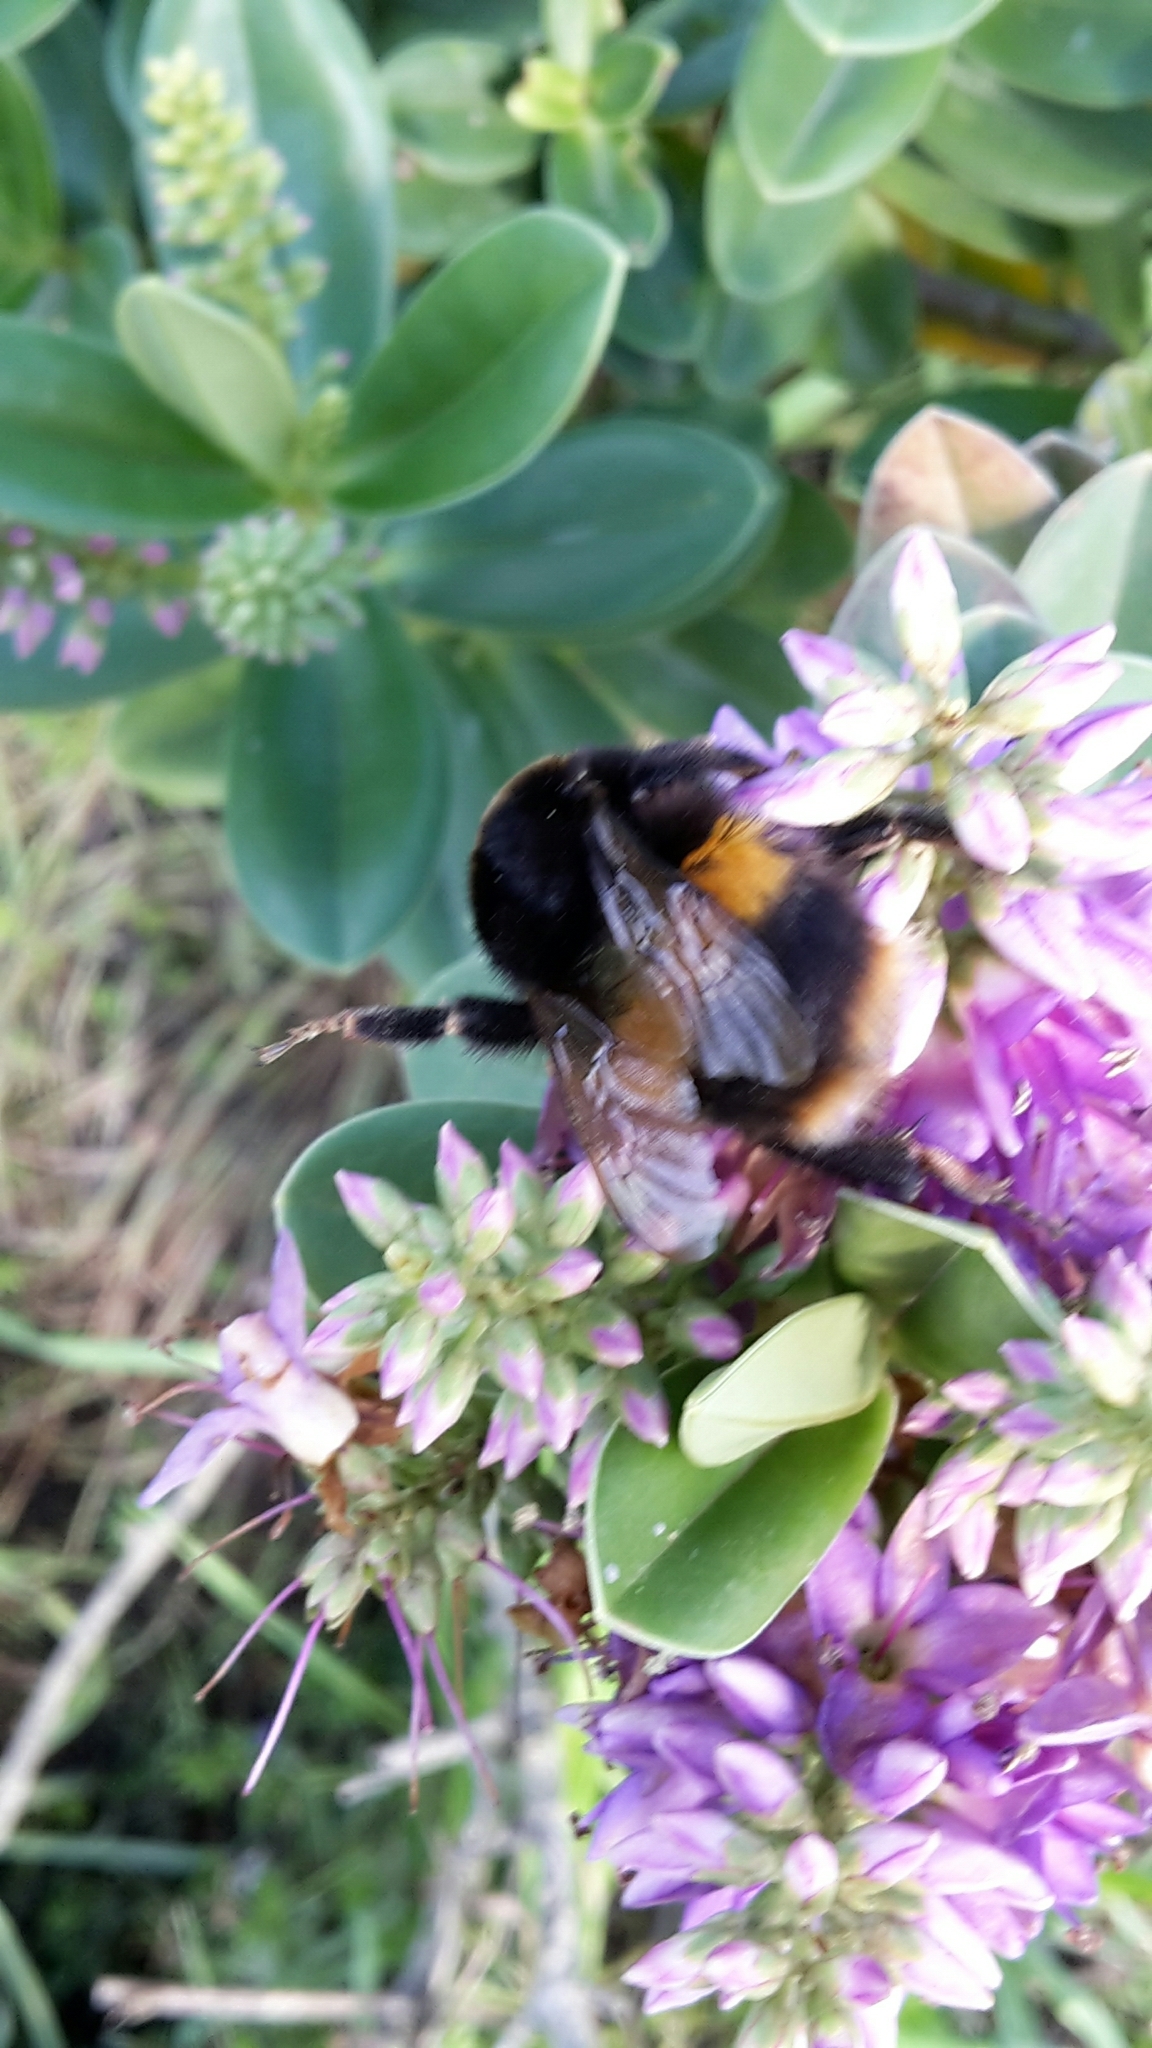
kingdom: Animalia
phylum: Arthropoda
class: Insecta
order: Hymenoptera
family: Apidae
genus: Bombus
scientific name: Bombus terrestris
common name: Buff-tailed bumblebee
